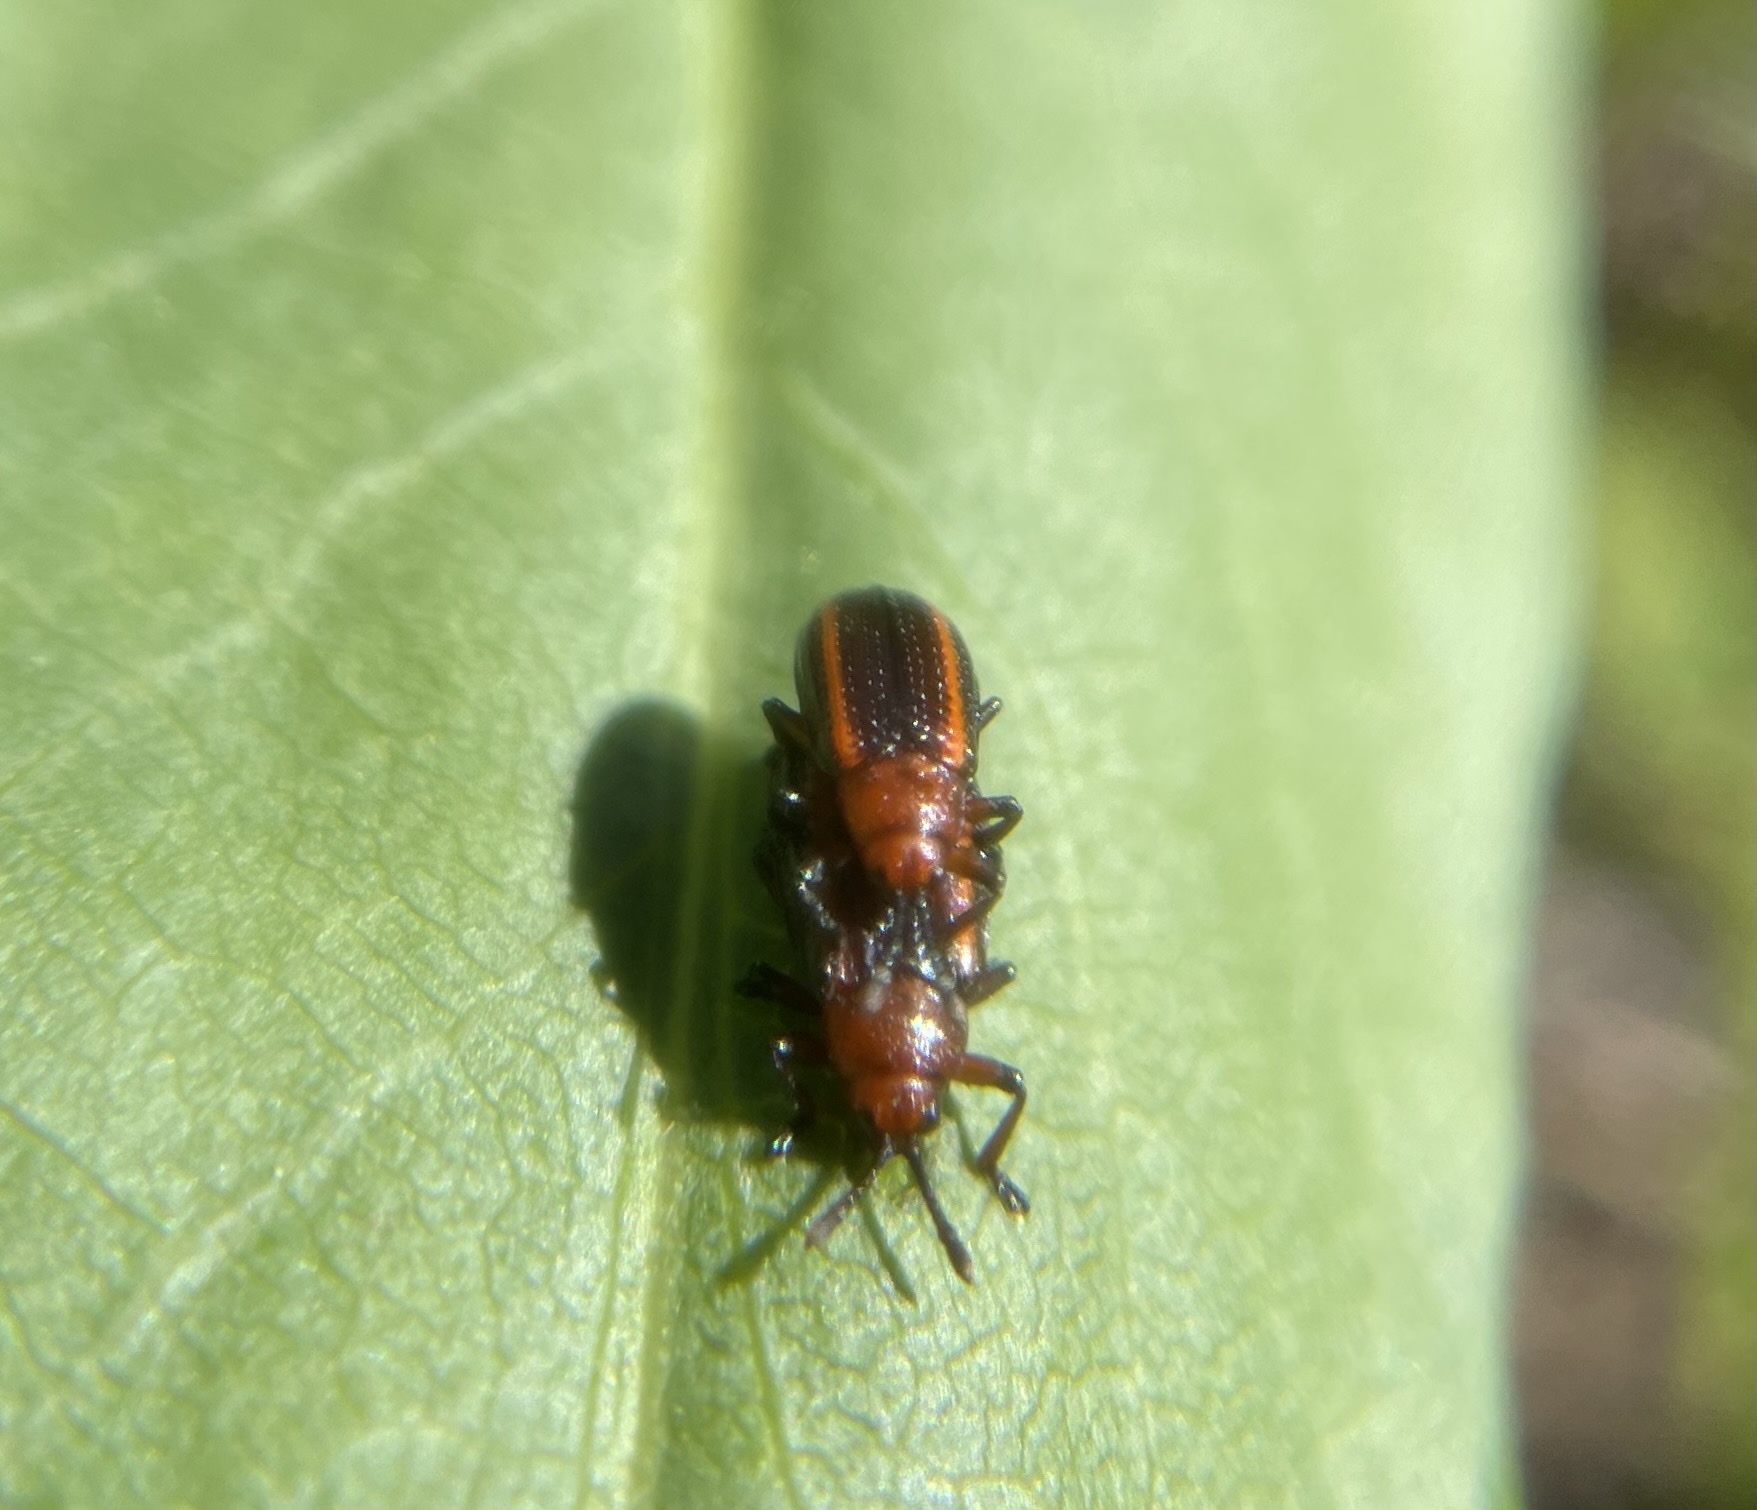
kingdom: Animalia
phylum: Arthropoda
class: Insecta
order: Coleoptera
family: Chrysomelidae
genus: Microrhopala
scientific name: Microrhopala vittata
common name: Goldenrod leaf miner beetle
